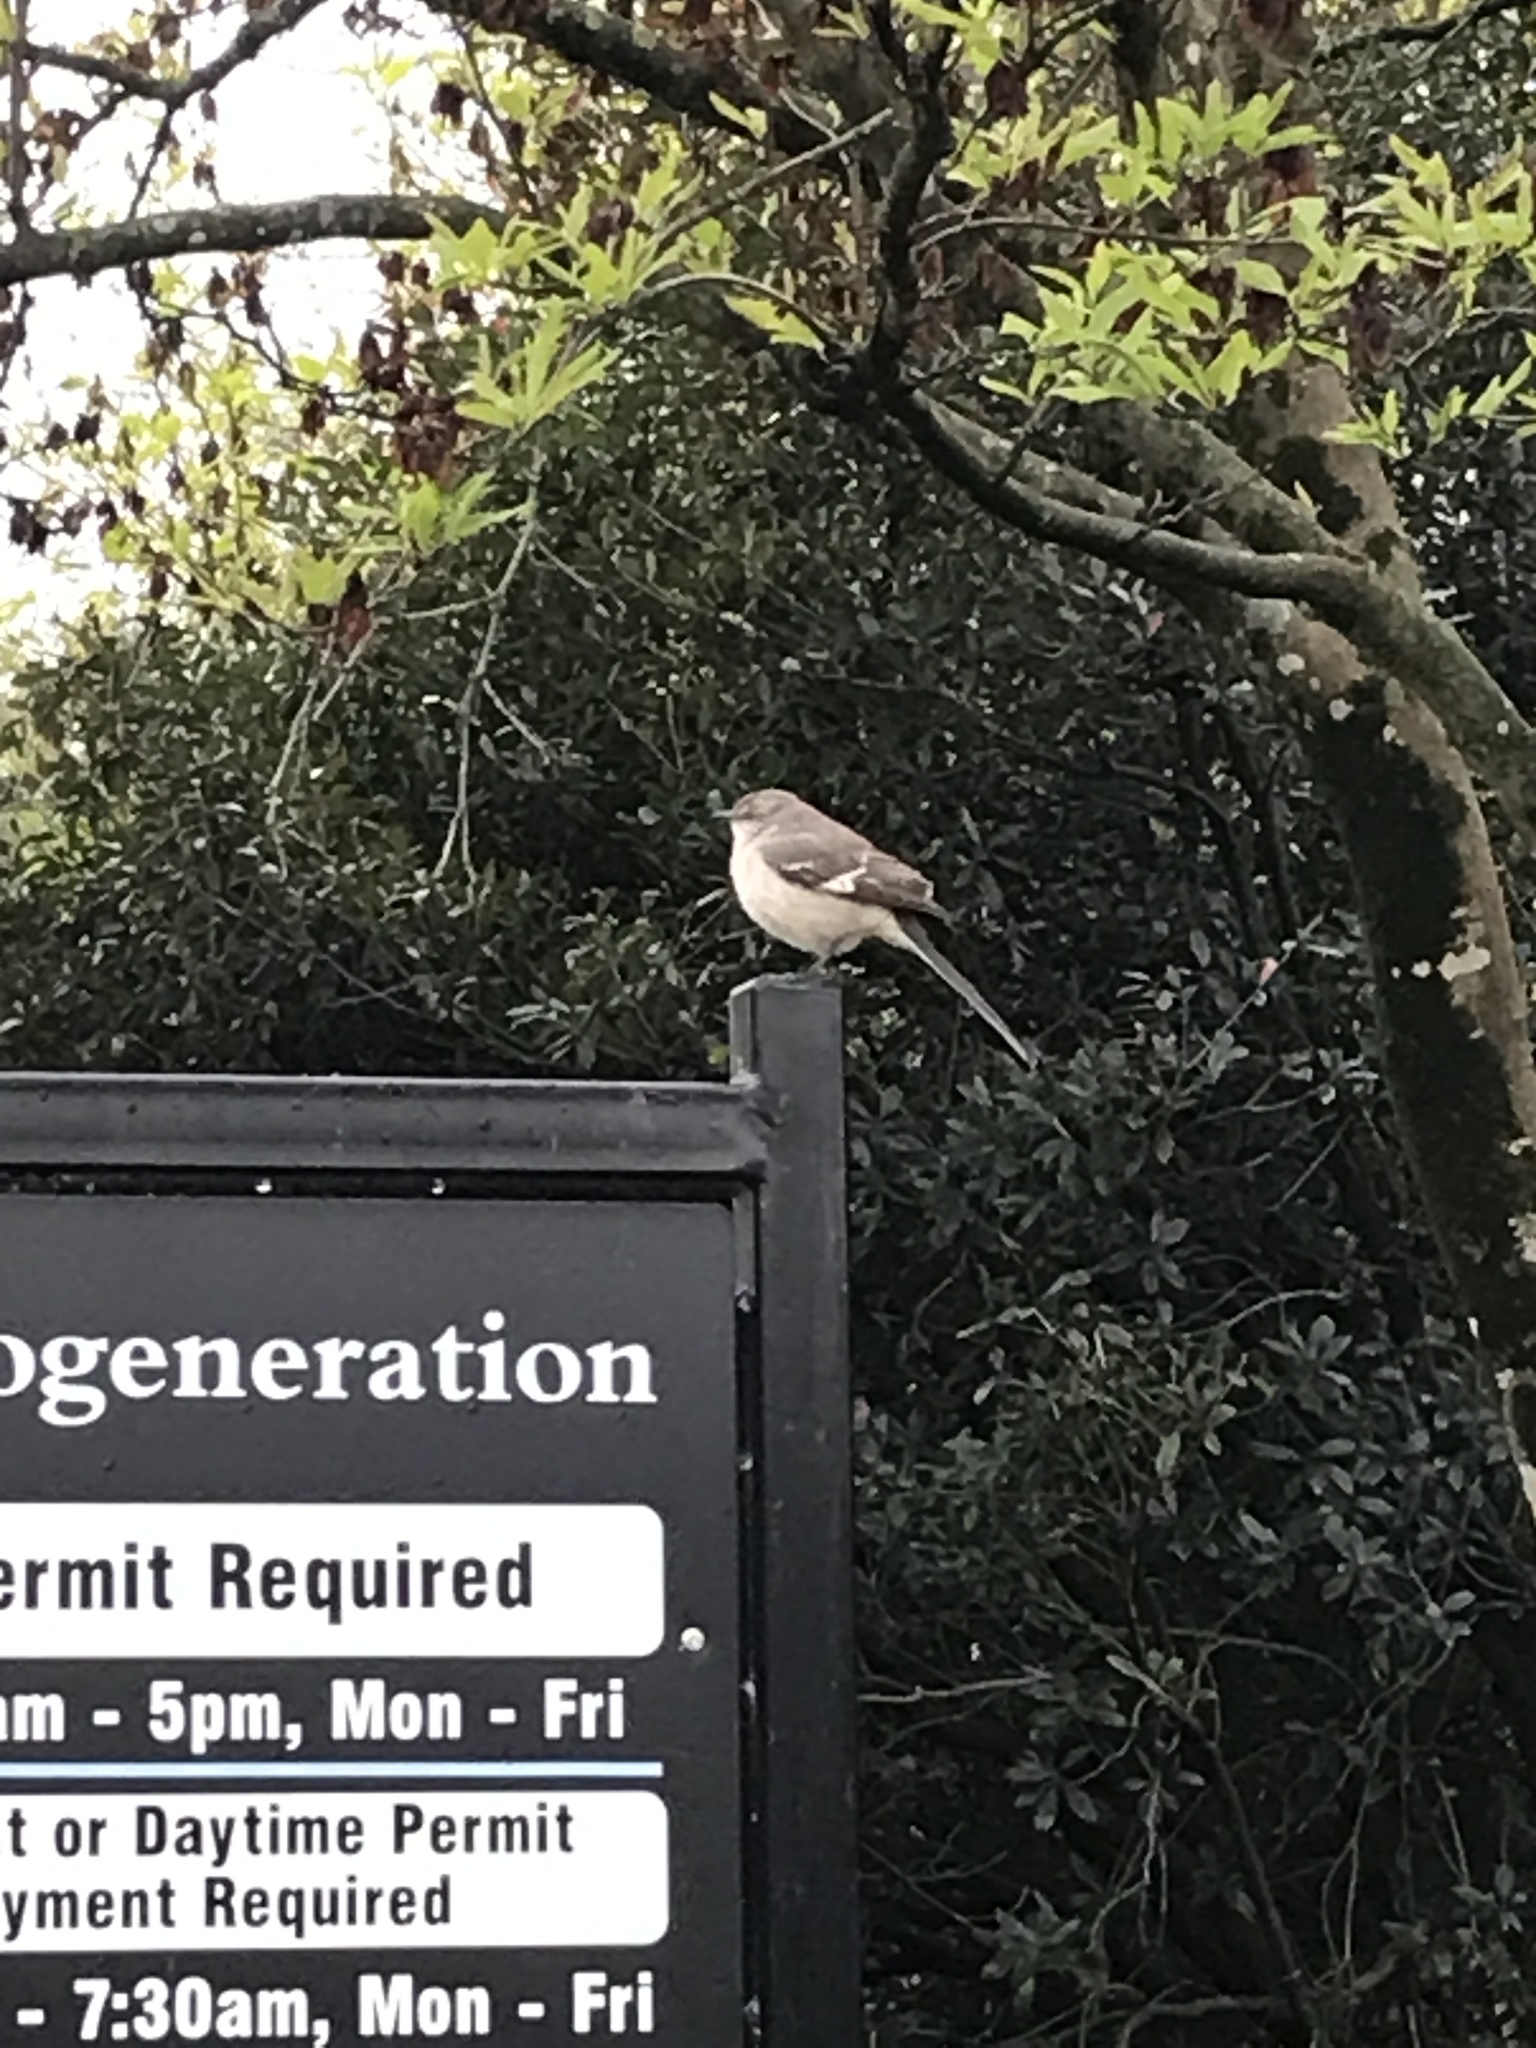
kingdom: Animalia
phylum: Chordata
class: Aves
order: Passeriformes
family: Mimidae
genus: Mimus
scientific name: Mimus polyglottos
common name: Northern mockingbird
